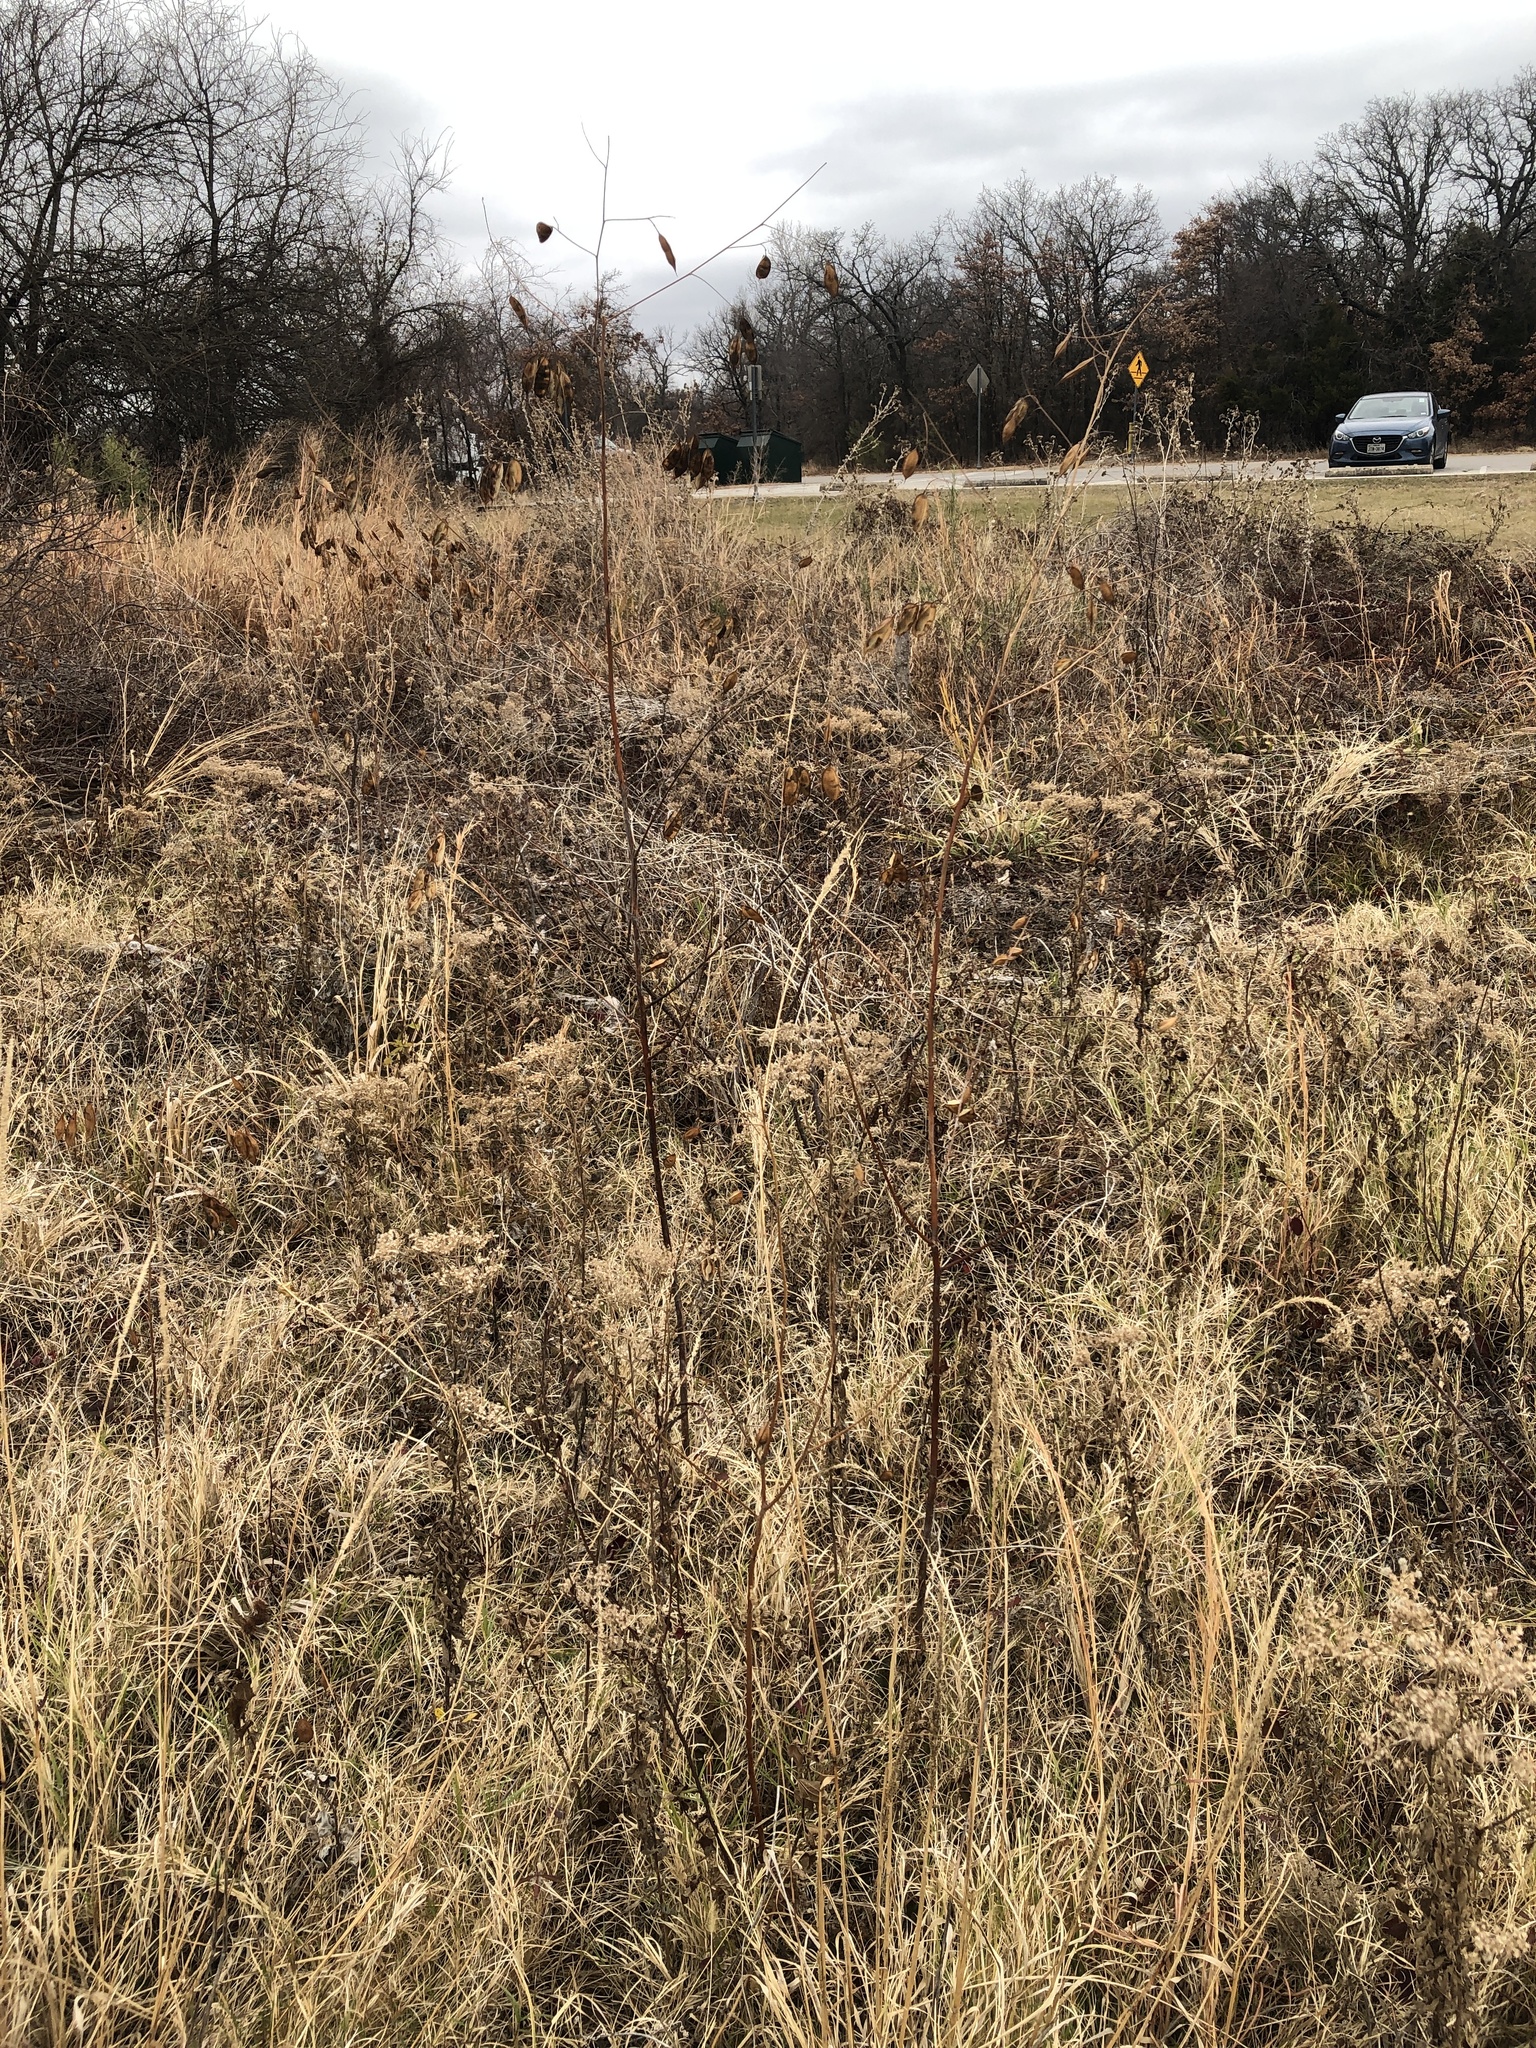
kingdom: Plantae
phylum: Tracheophyta
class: Magnoliopsida
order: Fabales
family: Fabaceae
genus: Sesbania
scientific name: Sesbania vesicaria
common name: Bagpod
